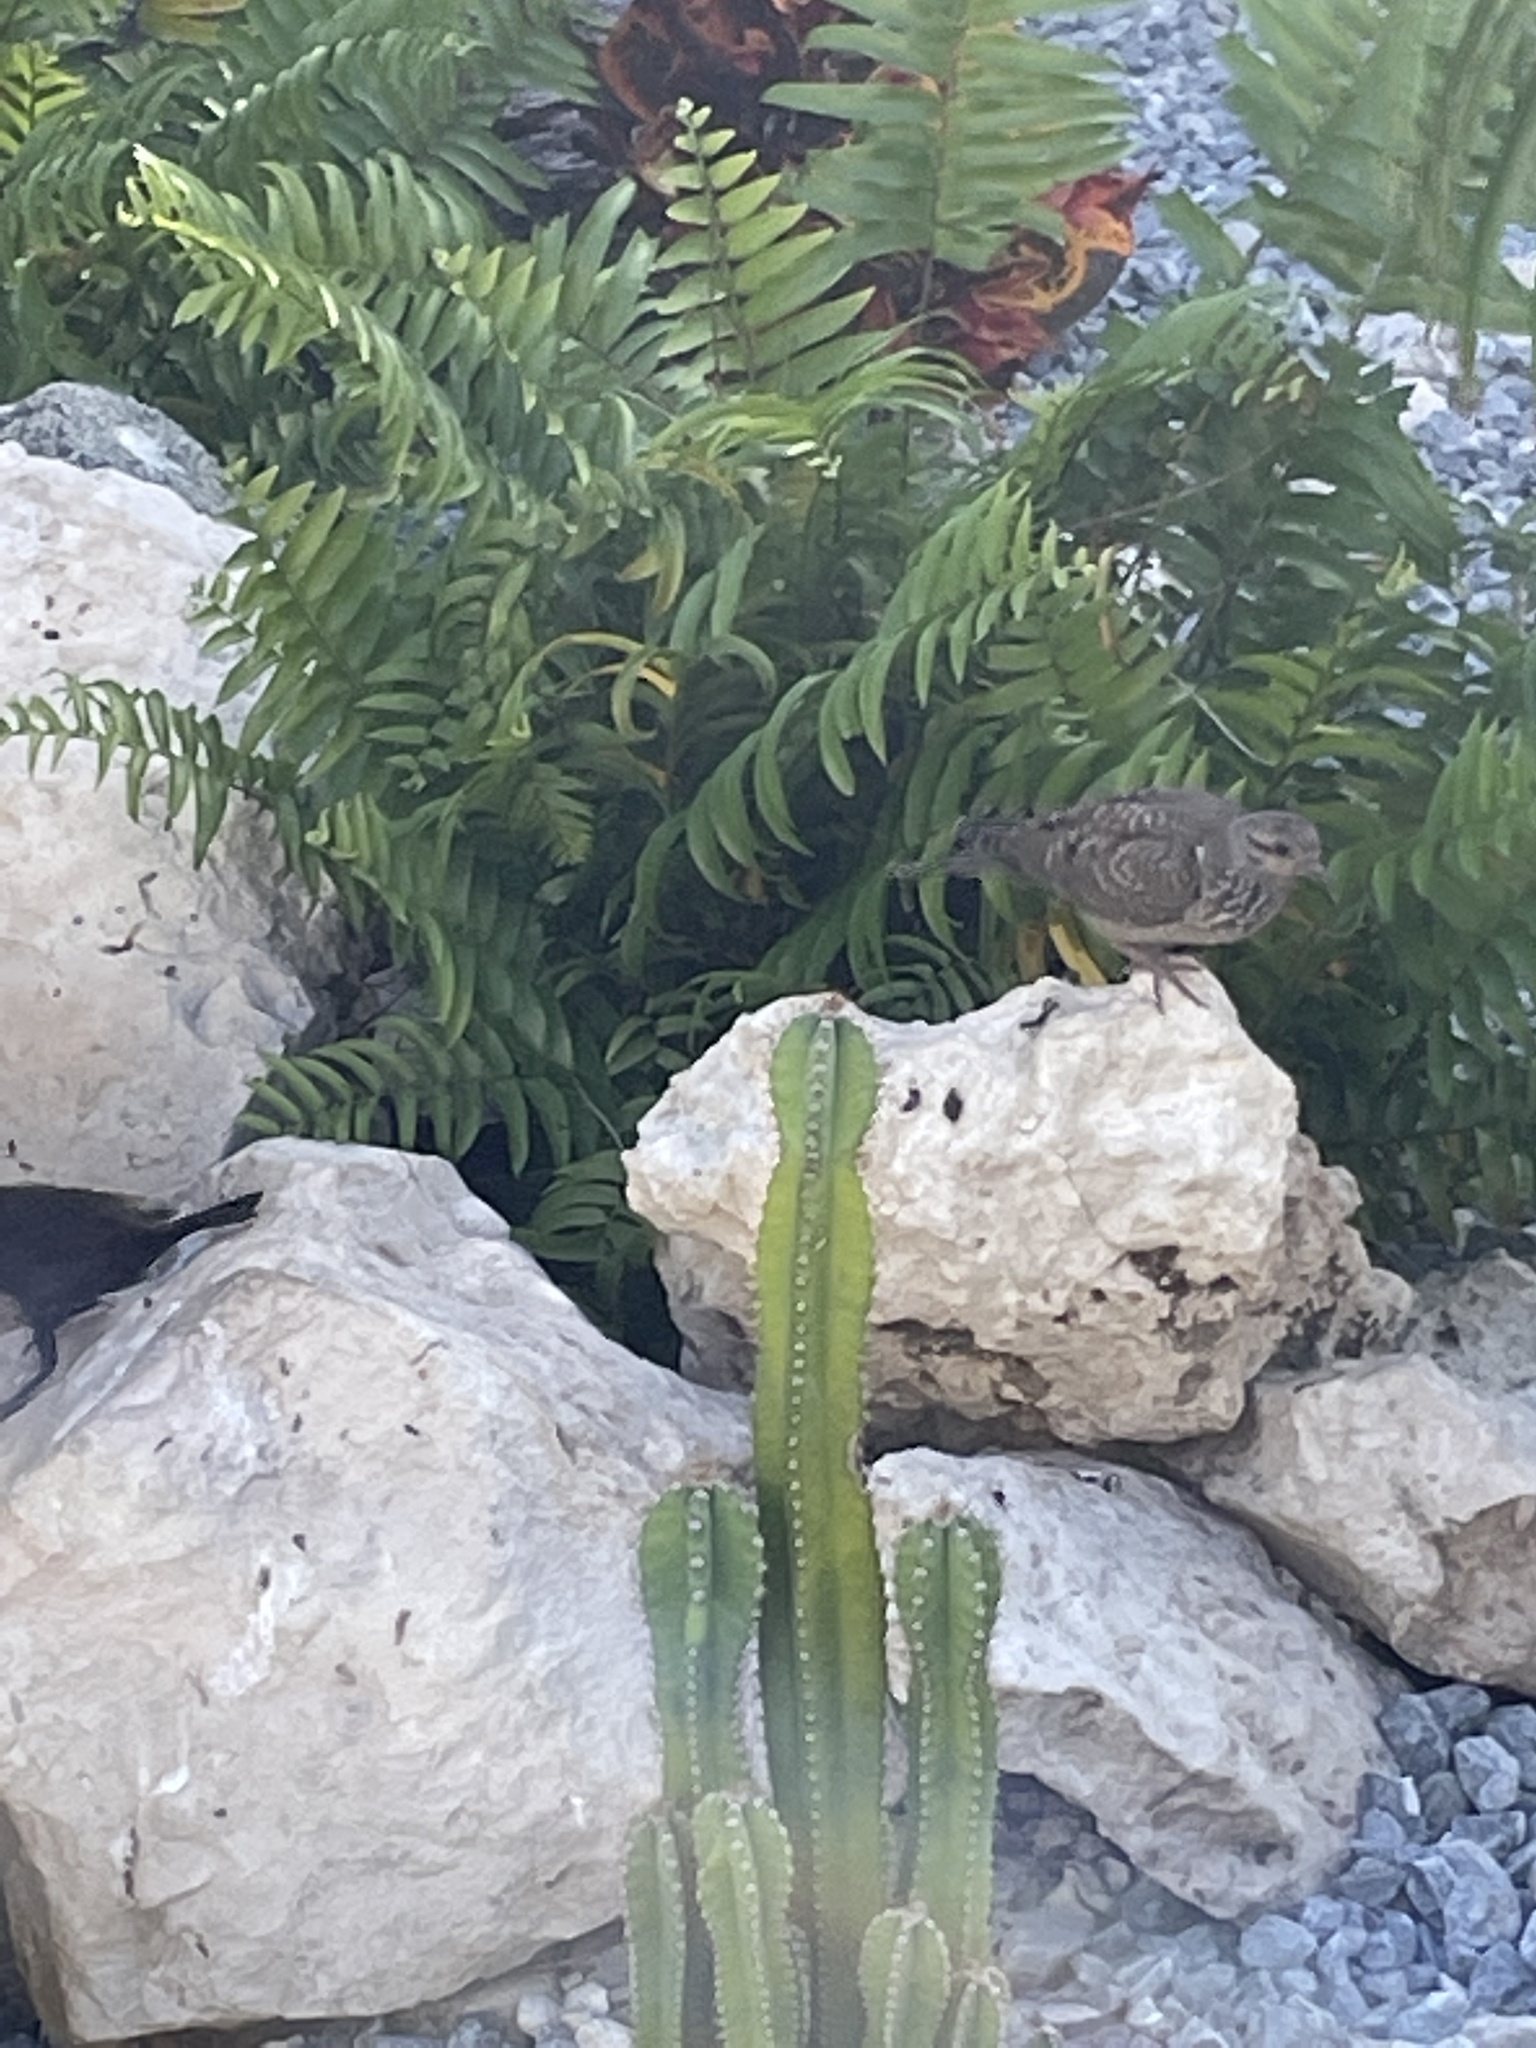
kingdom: Animalia
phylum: Chordata
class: Aves
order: Columbiformes
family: Columbidae
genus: Zenaida
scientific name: Zenaida auriculata
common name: Eared dove
